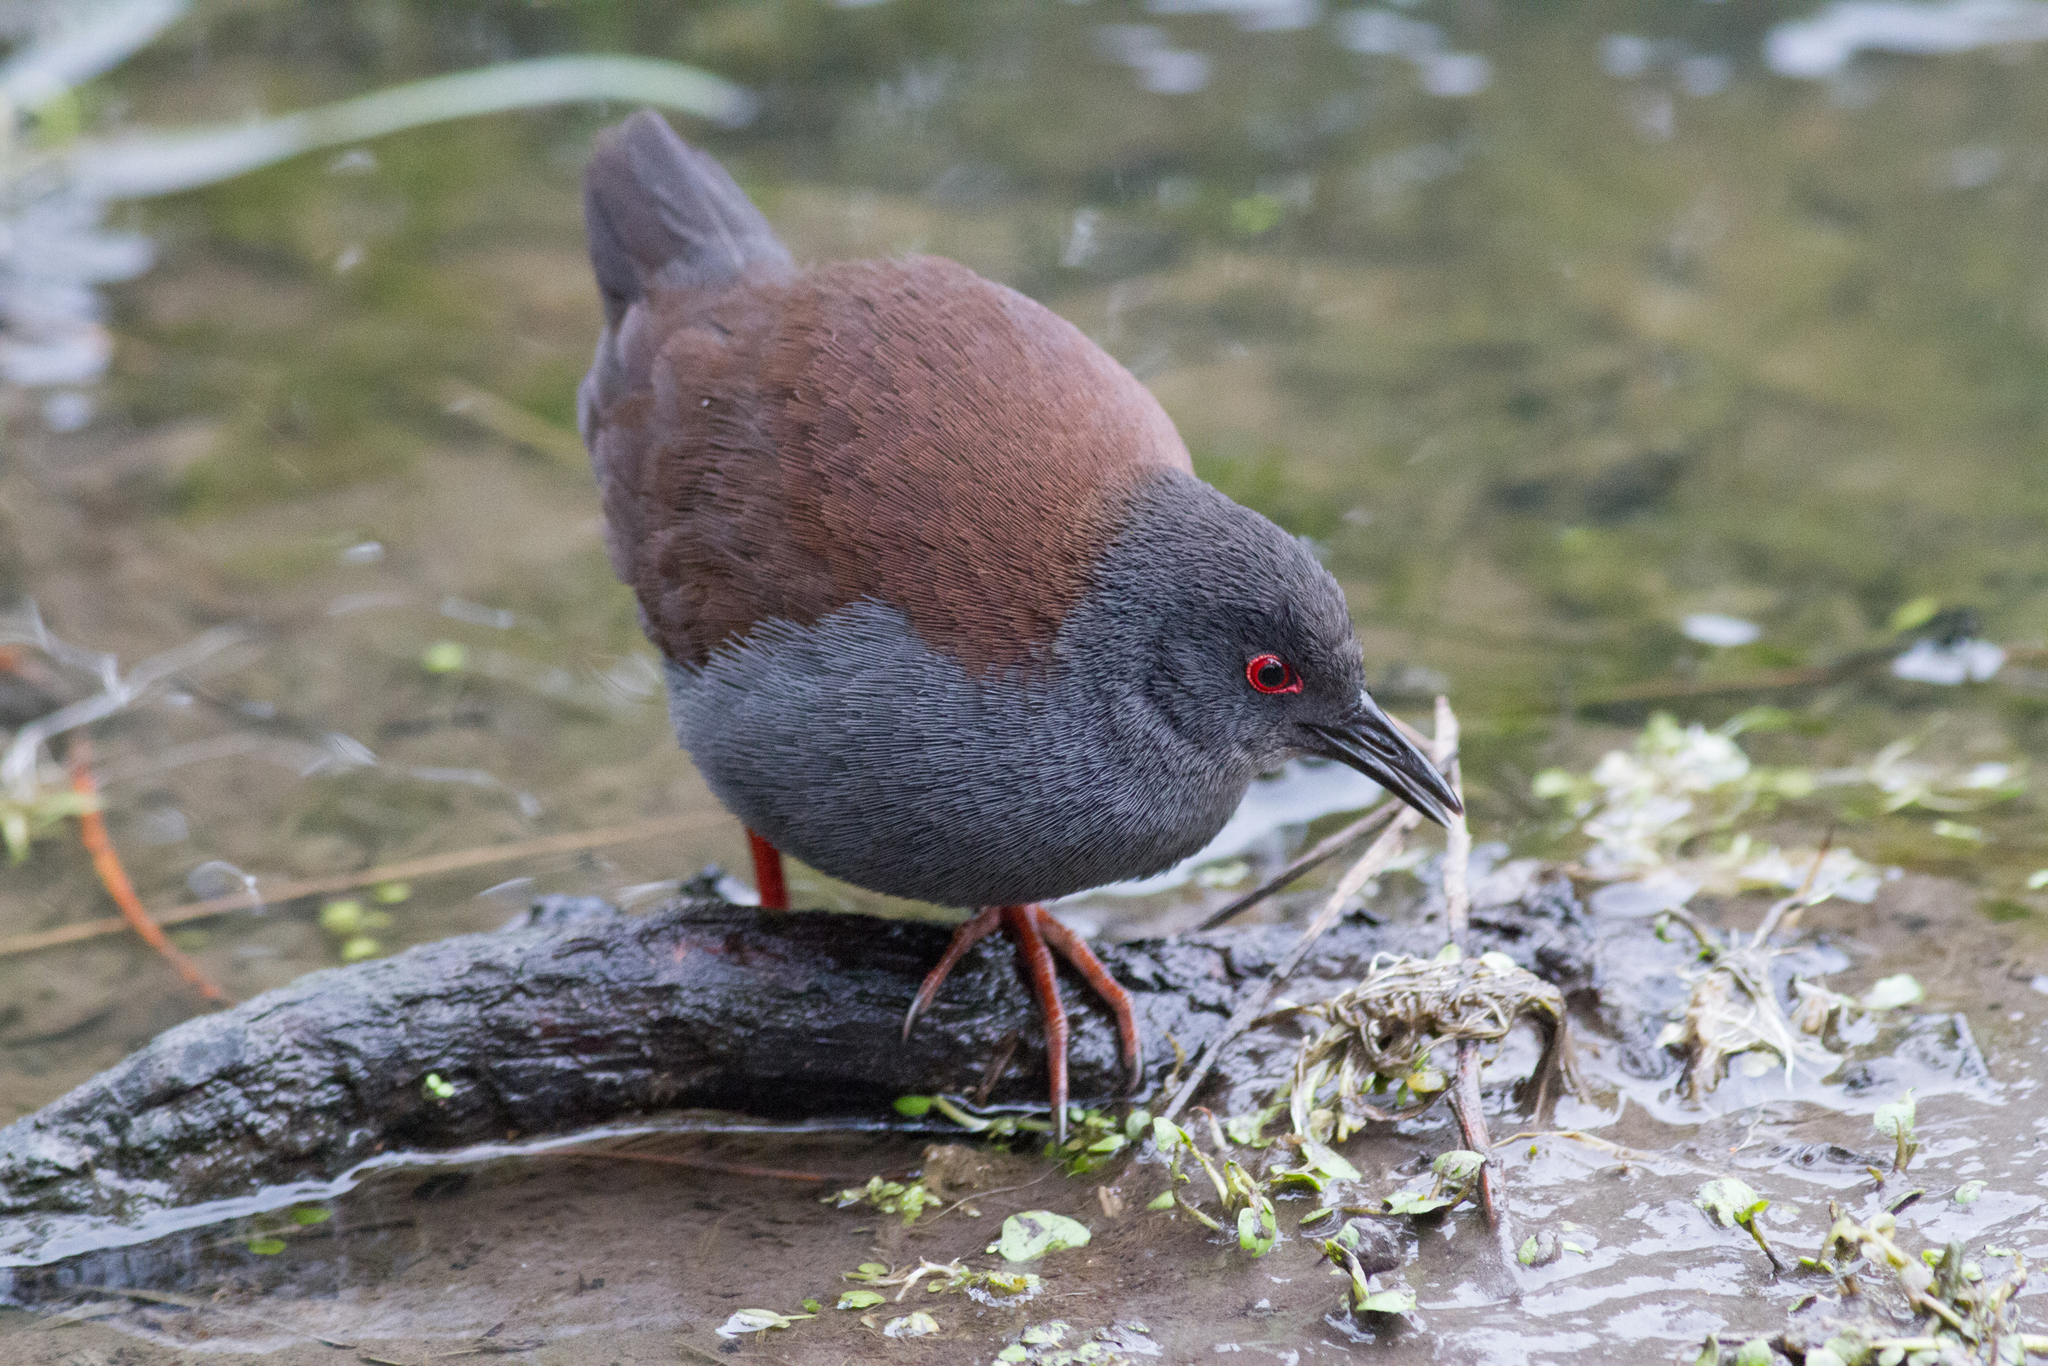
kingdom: Animalia
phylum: Chordata
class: Aves
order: Gruiformes
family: Rallidae
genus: Porzana
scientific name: Porzana tabuensis
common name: Spotless crake
